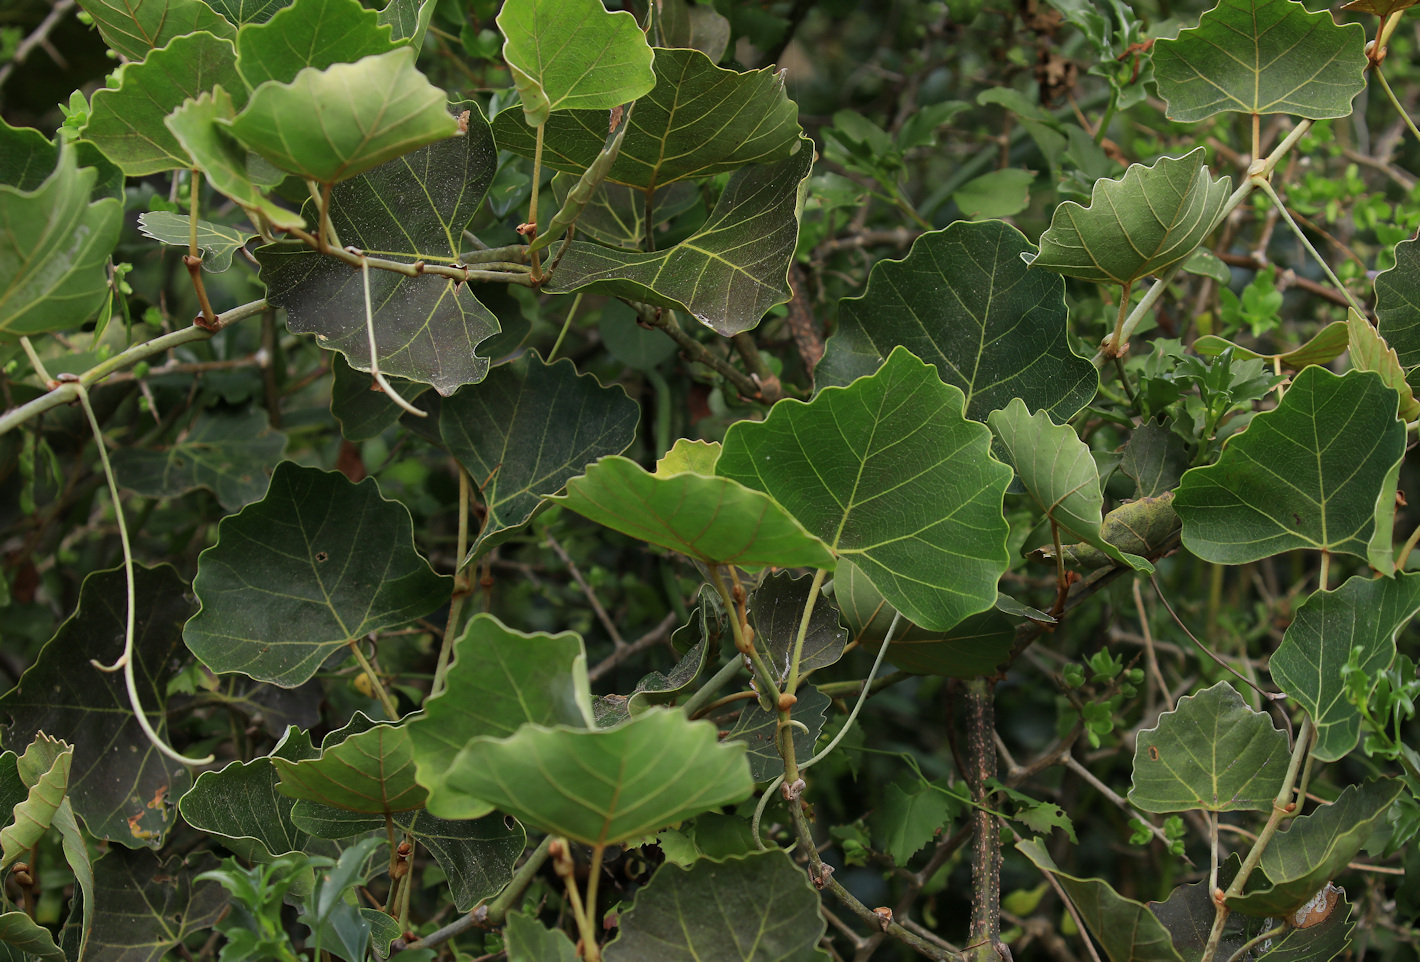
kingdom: Plantae
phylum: Tracheophyta
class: Magnoliopsida
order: Vitales
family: Vitaceae
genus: Rhoicissus
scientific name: Rhoicissus tomentosa
